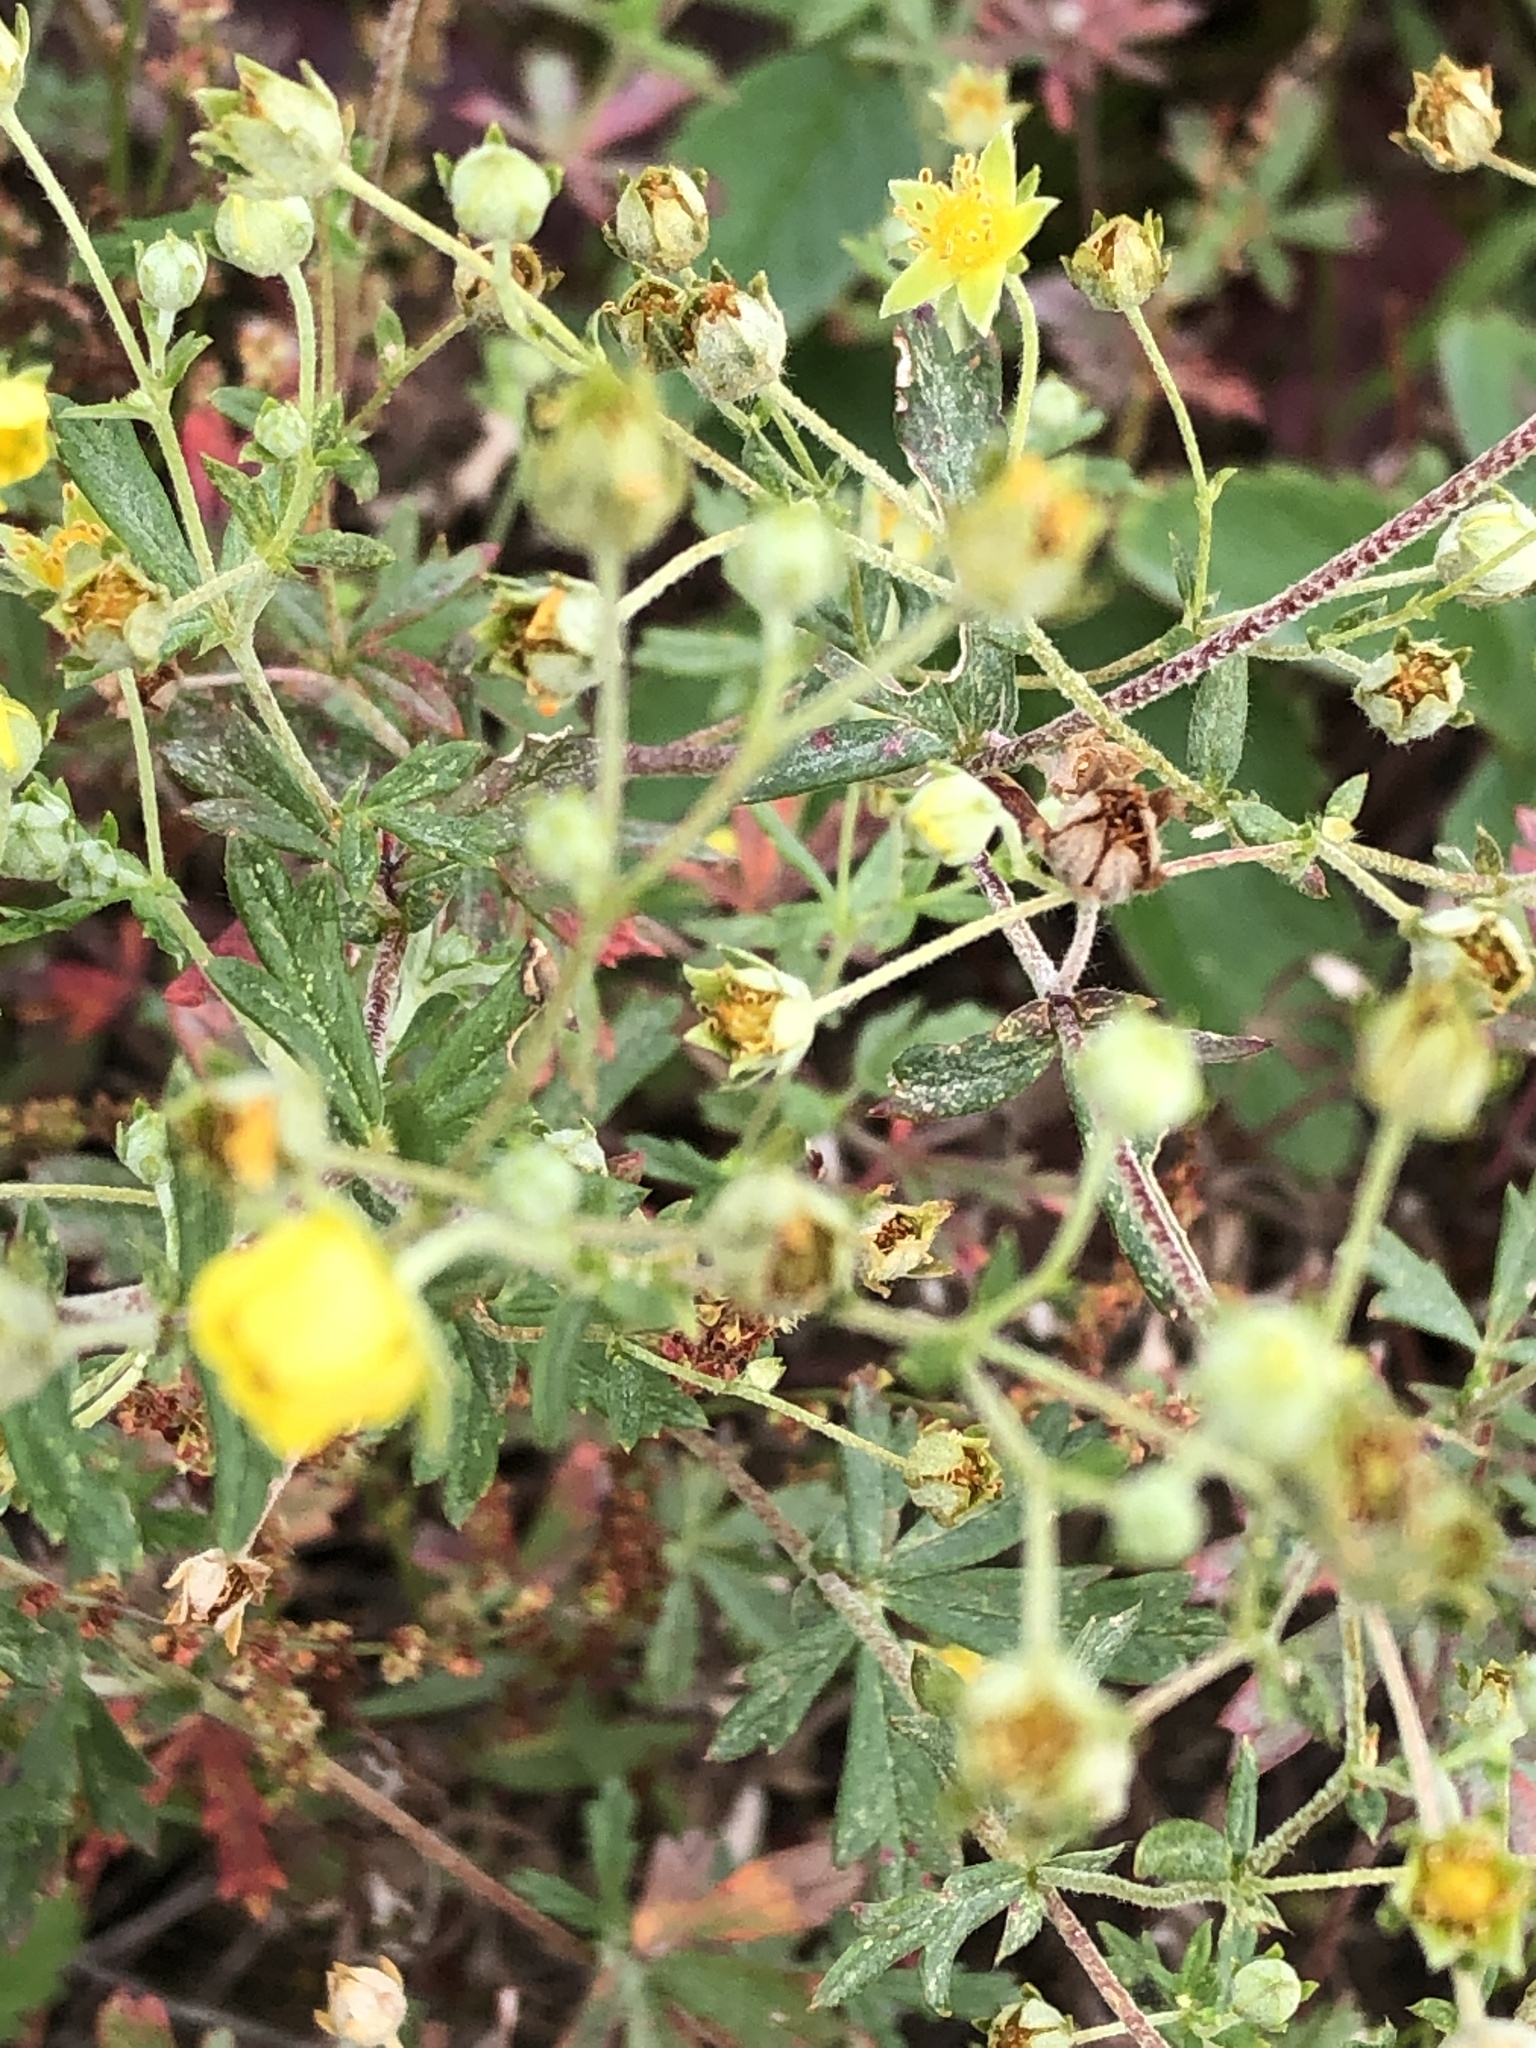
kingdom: Plantae
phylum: Tracheophyta
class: Magnoliopsida
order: Rosales
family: Rosaceae
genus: Potentilla
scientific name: Potentilla argentea
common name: Hoary cinquefoil
